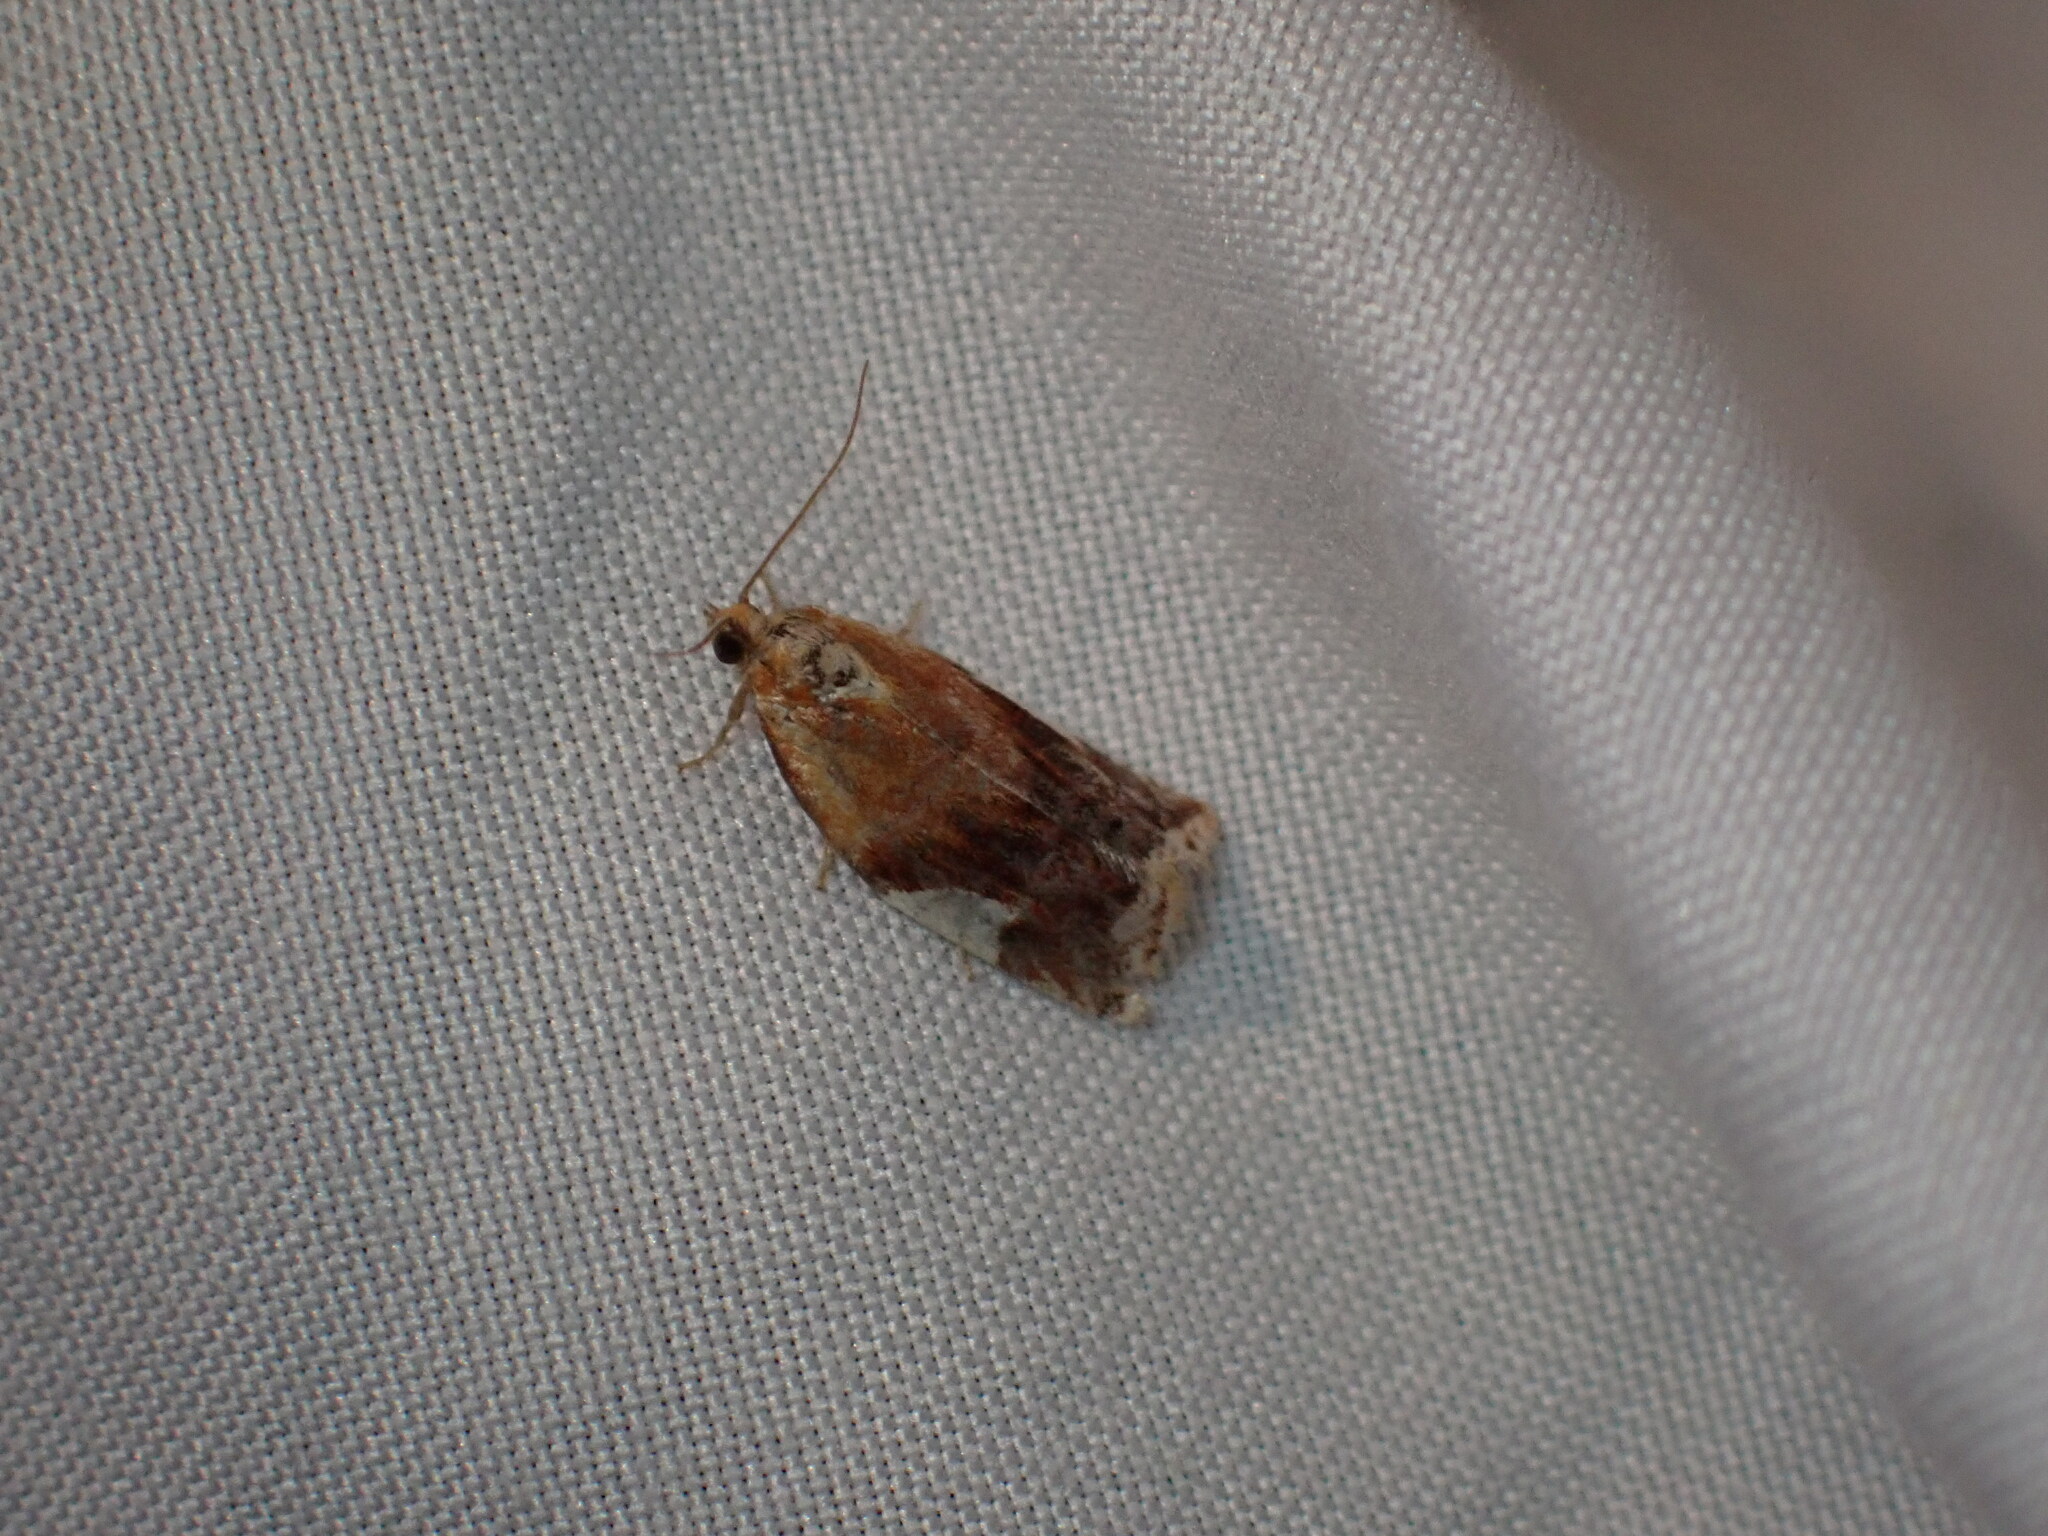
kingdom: Animalia
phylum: Arthropoda
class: Insecta
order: Lepidoptera
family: Tortricidae
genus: Clepsis
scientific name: Clepsis persicana
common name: White triangle tortrix
